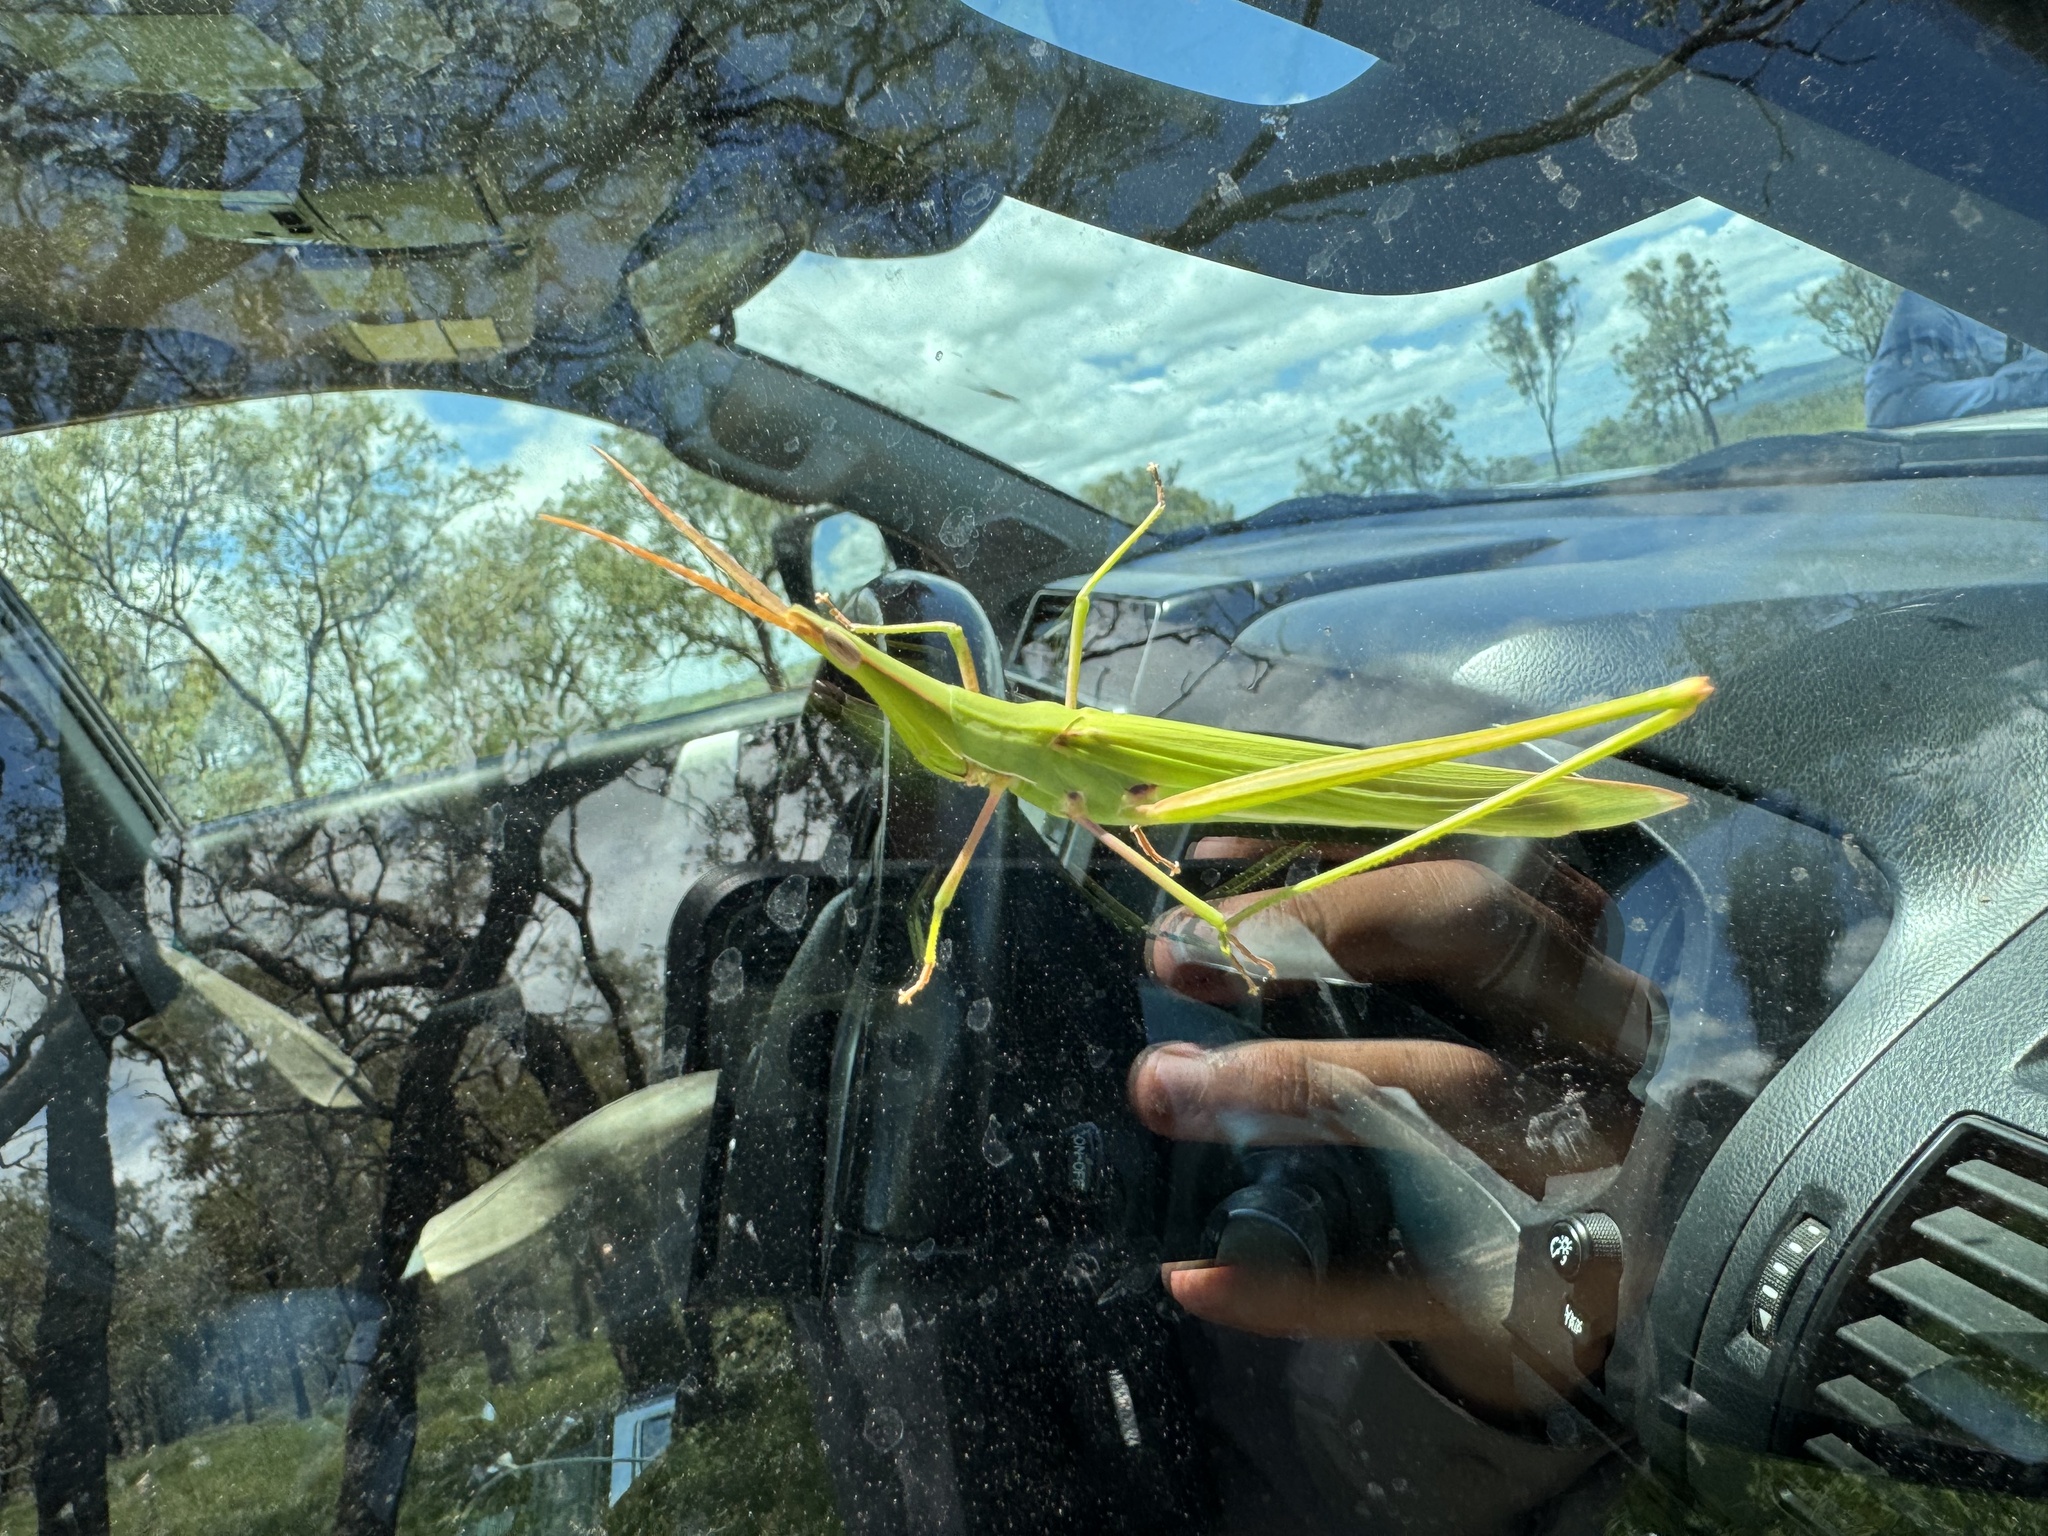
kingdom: Animalia
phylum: Arthropoda
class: Insecta
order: Orthoptera
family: Acrididae
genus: Acrida
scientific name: Acrida conica
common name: Giant green slantface
